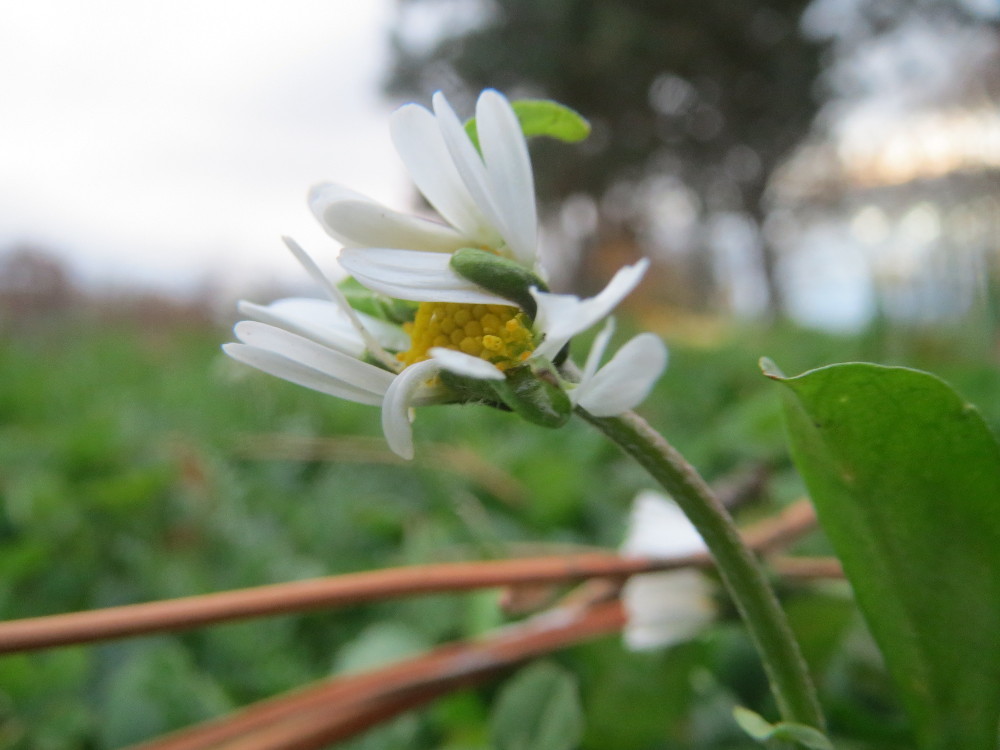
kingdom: Plantae
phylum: Tracheophyta
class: Magnoliopsida
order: Asterales
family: Asteraceae
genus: Bellis
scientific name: Bellis perennis
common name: Lawndaisy
